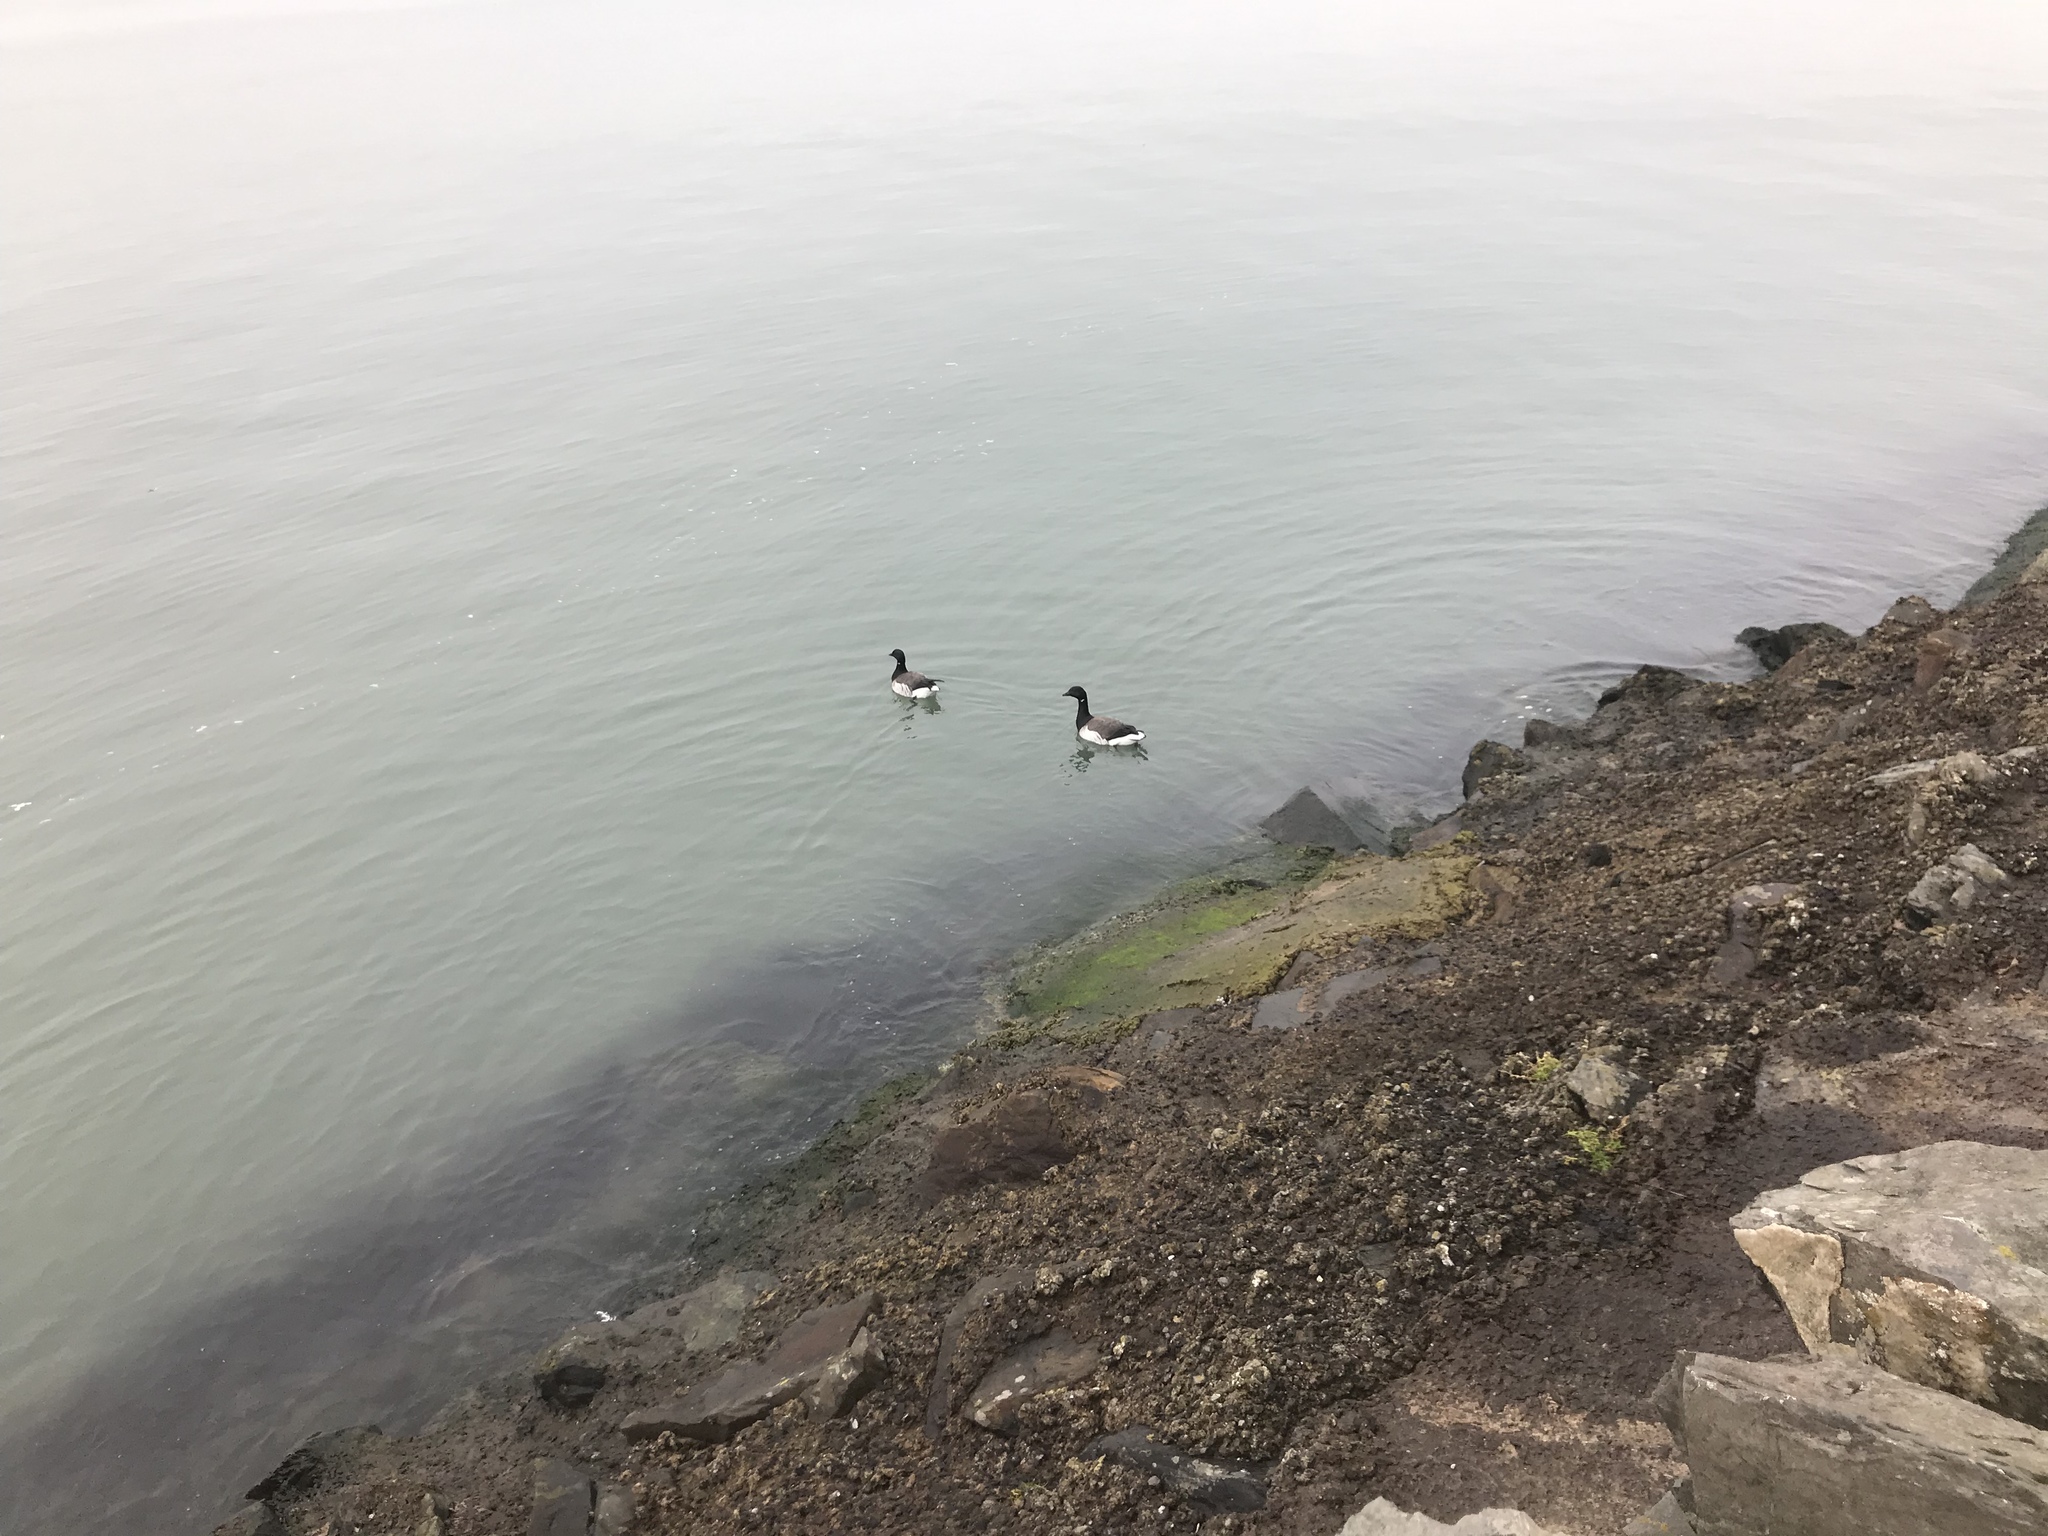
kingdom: Animalia
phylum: Chordata
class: Aves
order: Anseriformes
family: Anatidae
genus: Branta
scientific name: Branta bernicla
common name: Brant goose
